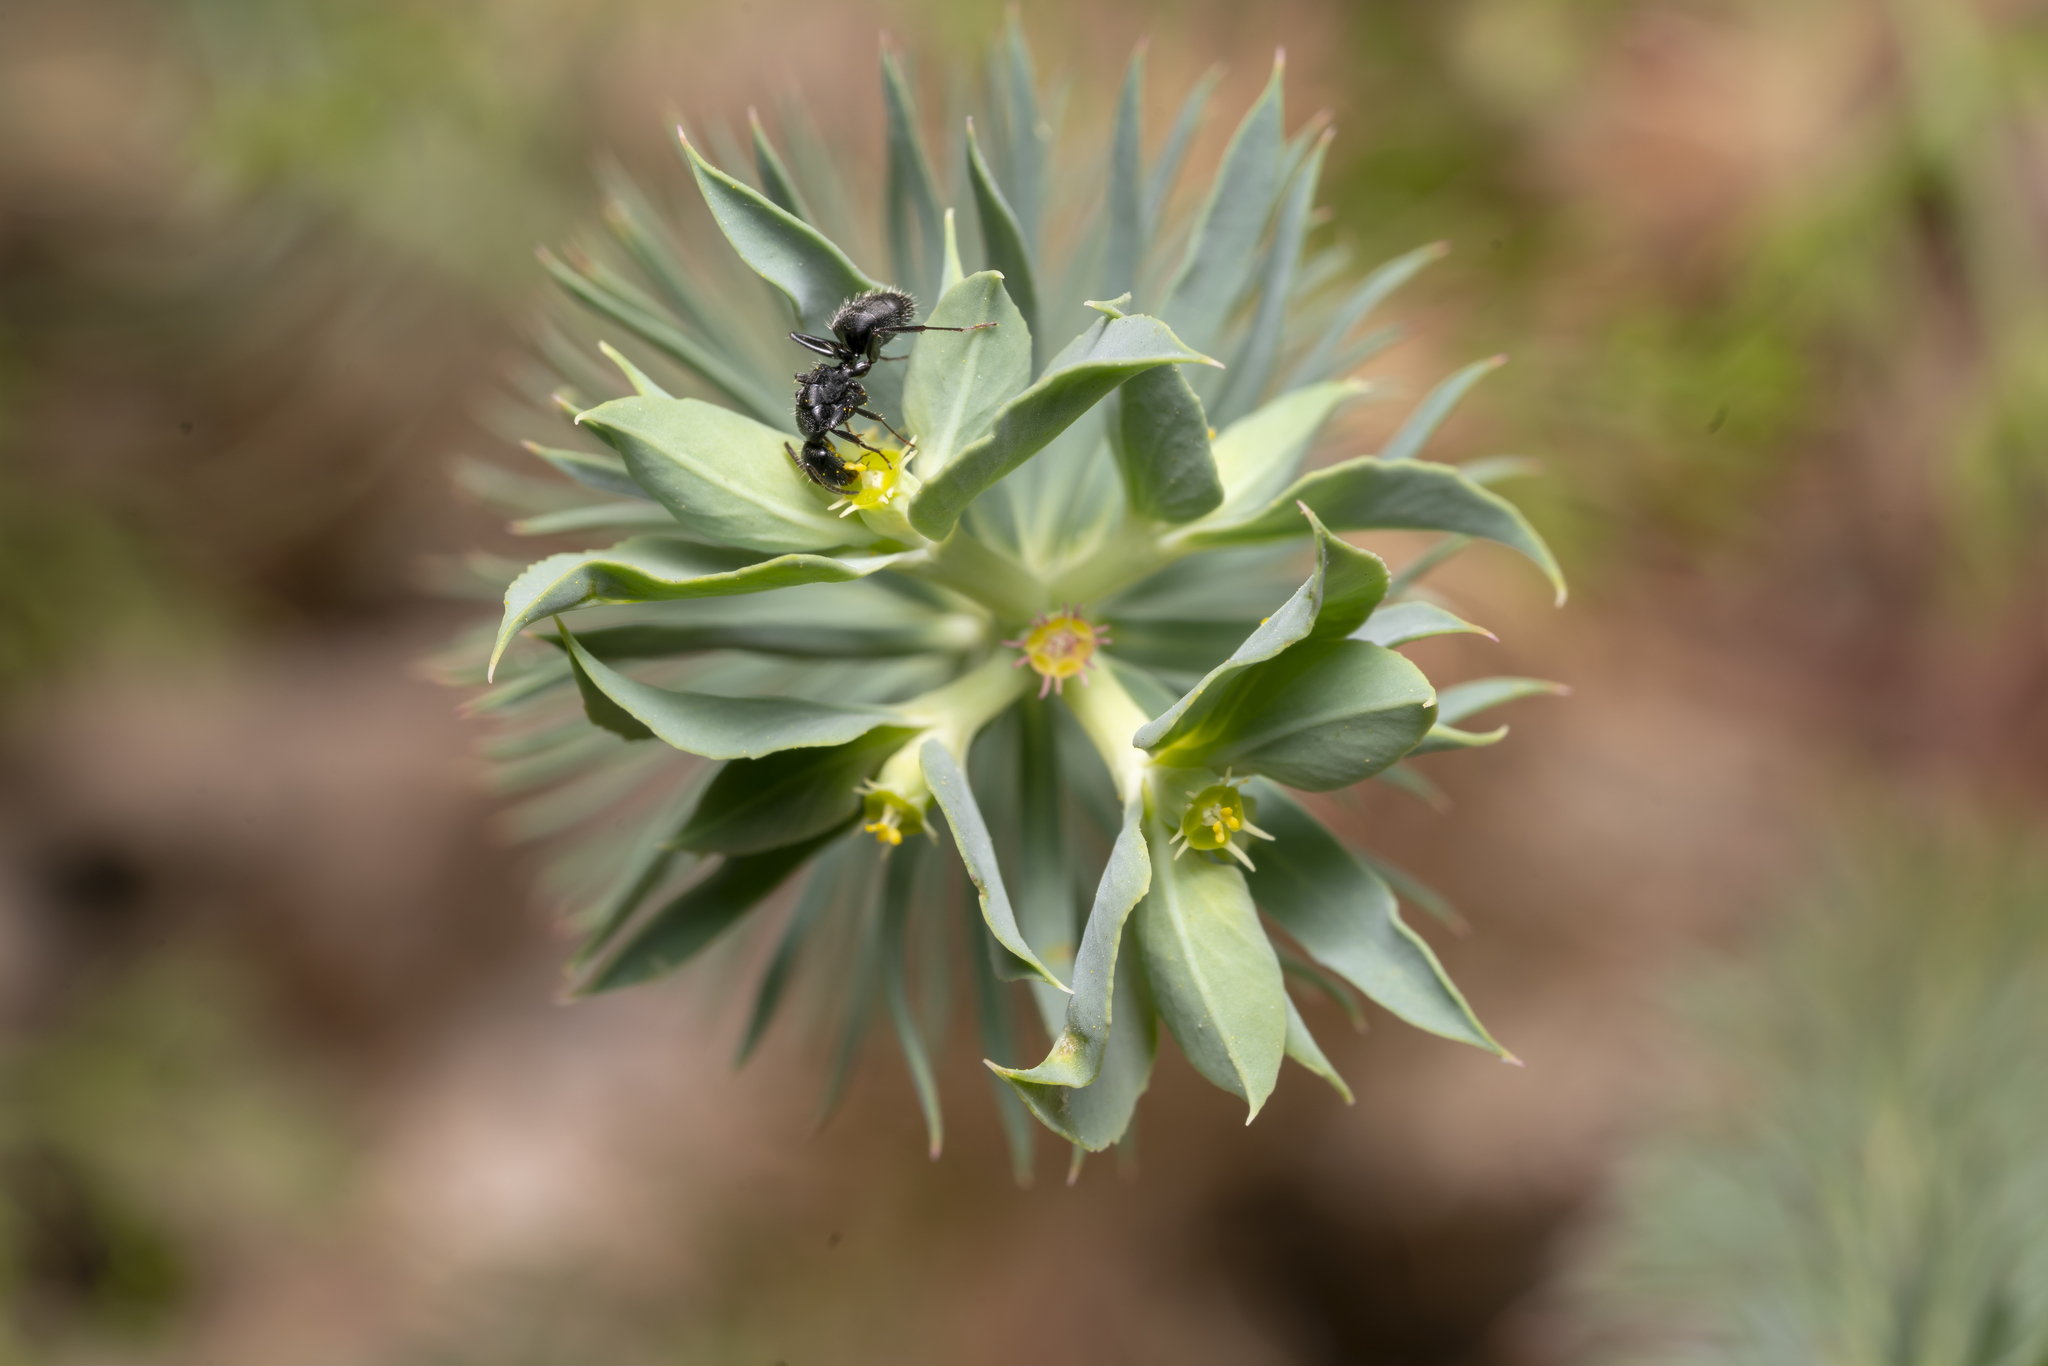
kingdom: Plantae
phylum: Tracheophyta
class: Magnoliopsida
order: Malpighiales
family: Euphorbiaceae
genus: Euphorbia
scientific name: Euphorbia aleppica
